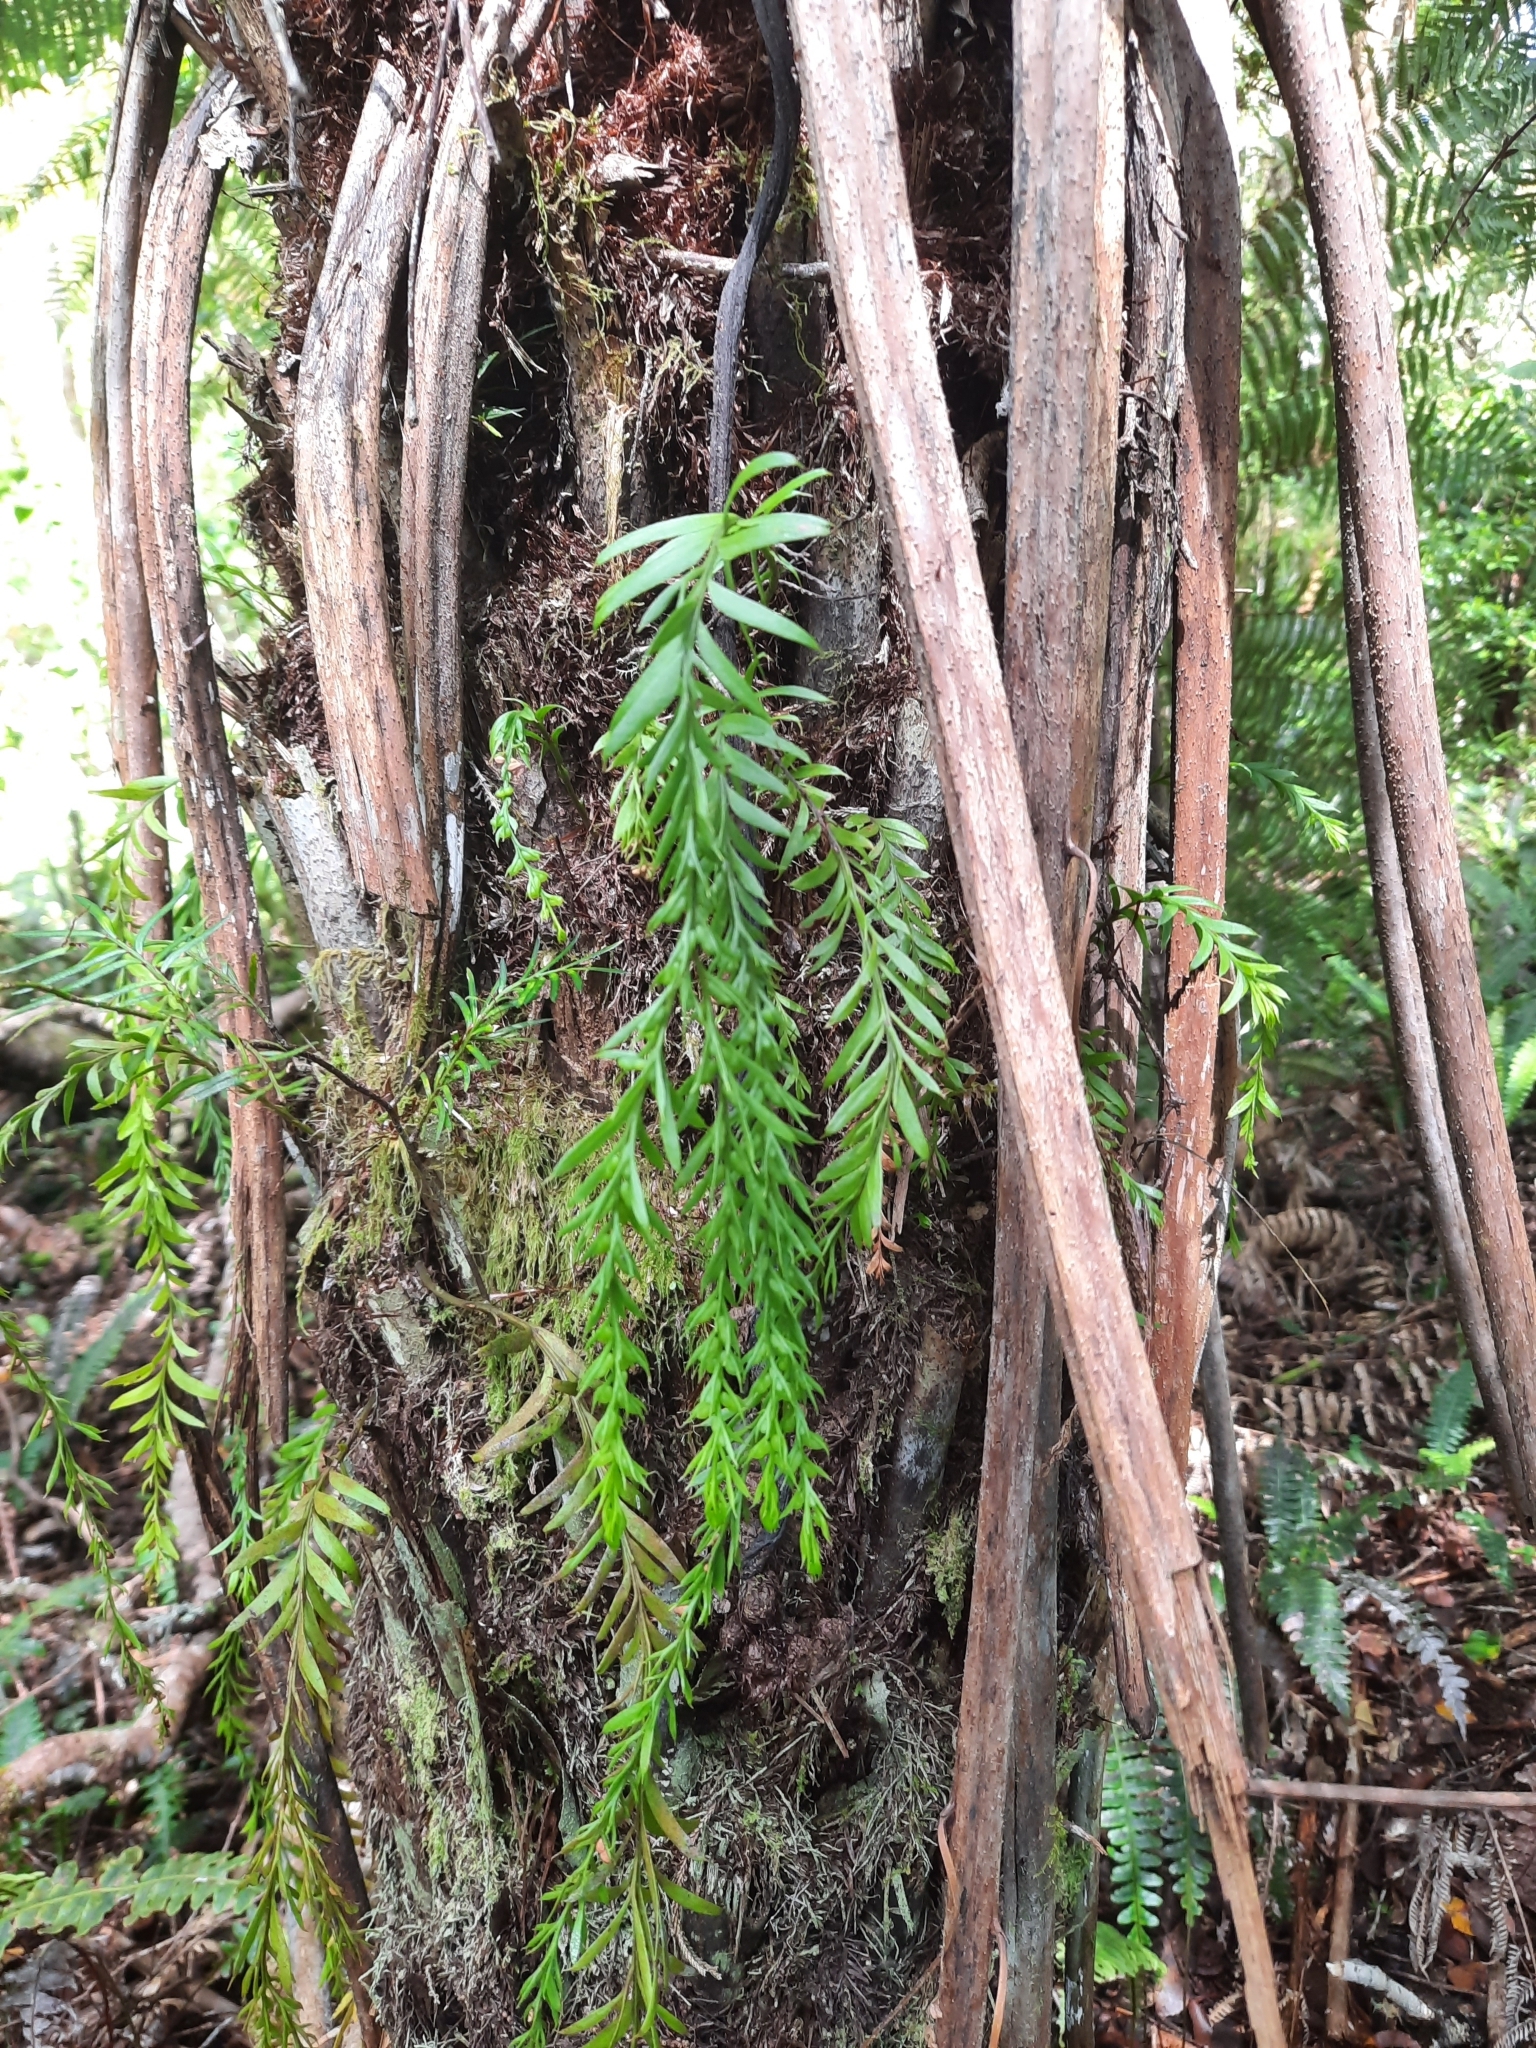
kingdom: Plantae
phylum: Tracheophyta
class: Polypodiopsida
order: Psilotales
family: Psilotaceae
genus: Tmesipteris
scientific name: Tmesipteris elongata
